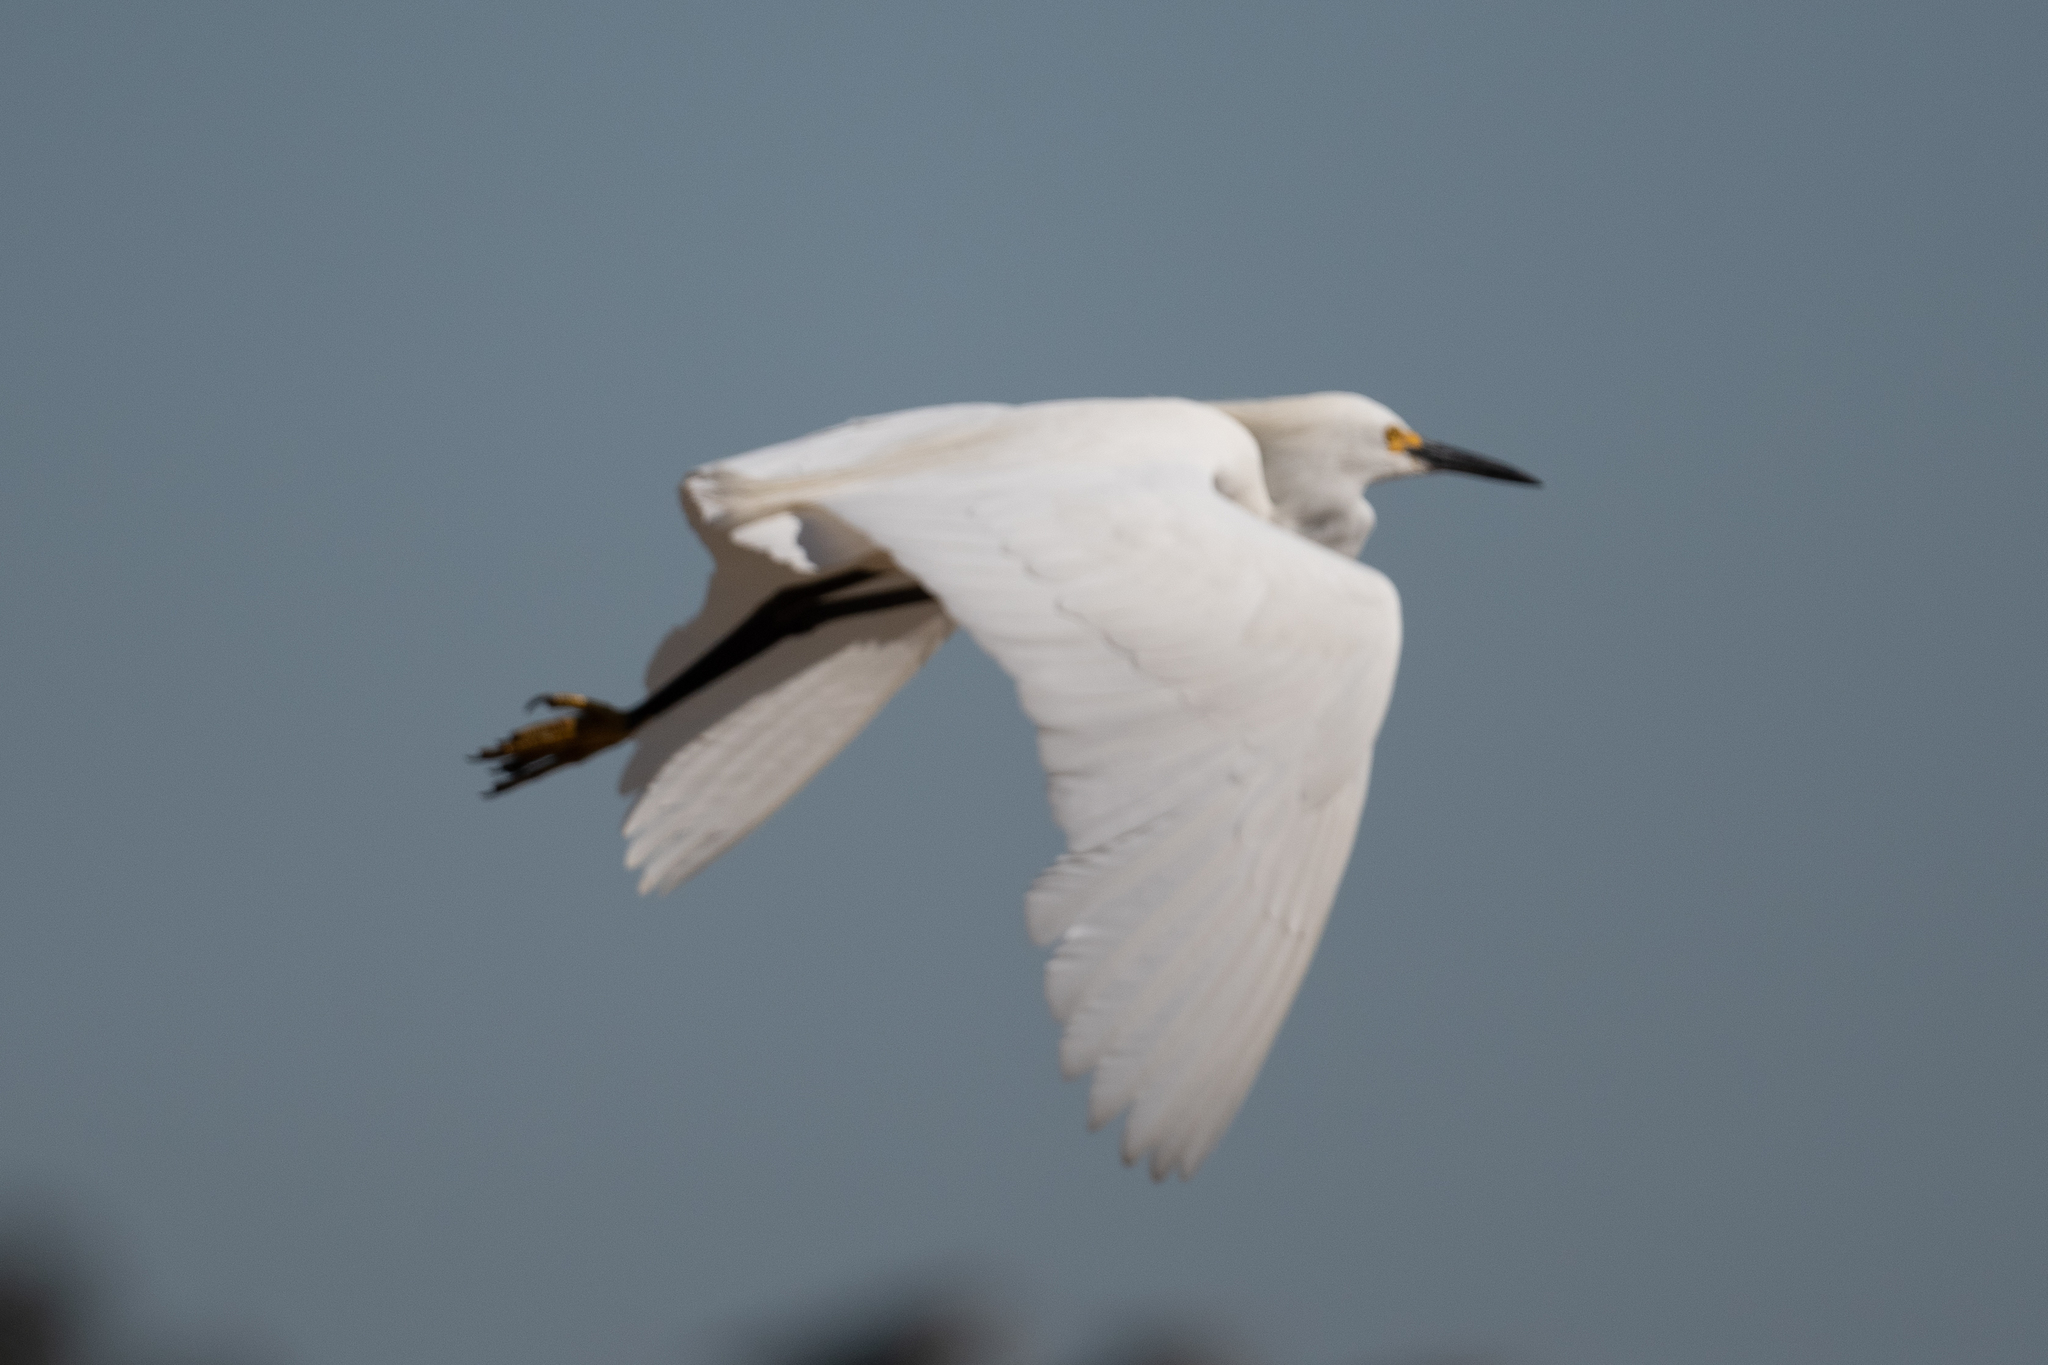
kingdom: Animalia
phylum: Chordata
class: Aves
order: Pelecaniformes
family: Ardeidae
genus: Egretta
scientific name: Egretta thula
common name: Snowy egret
